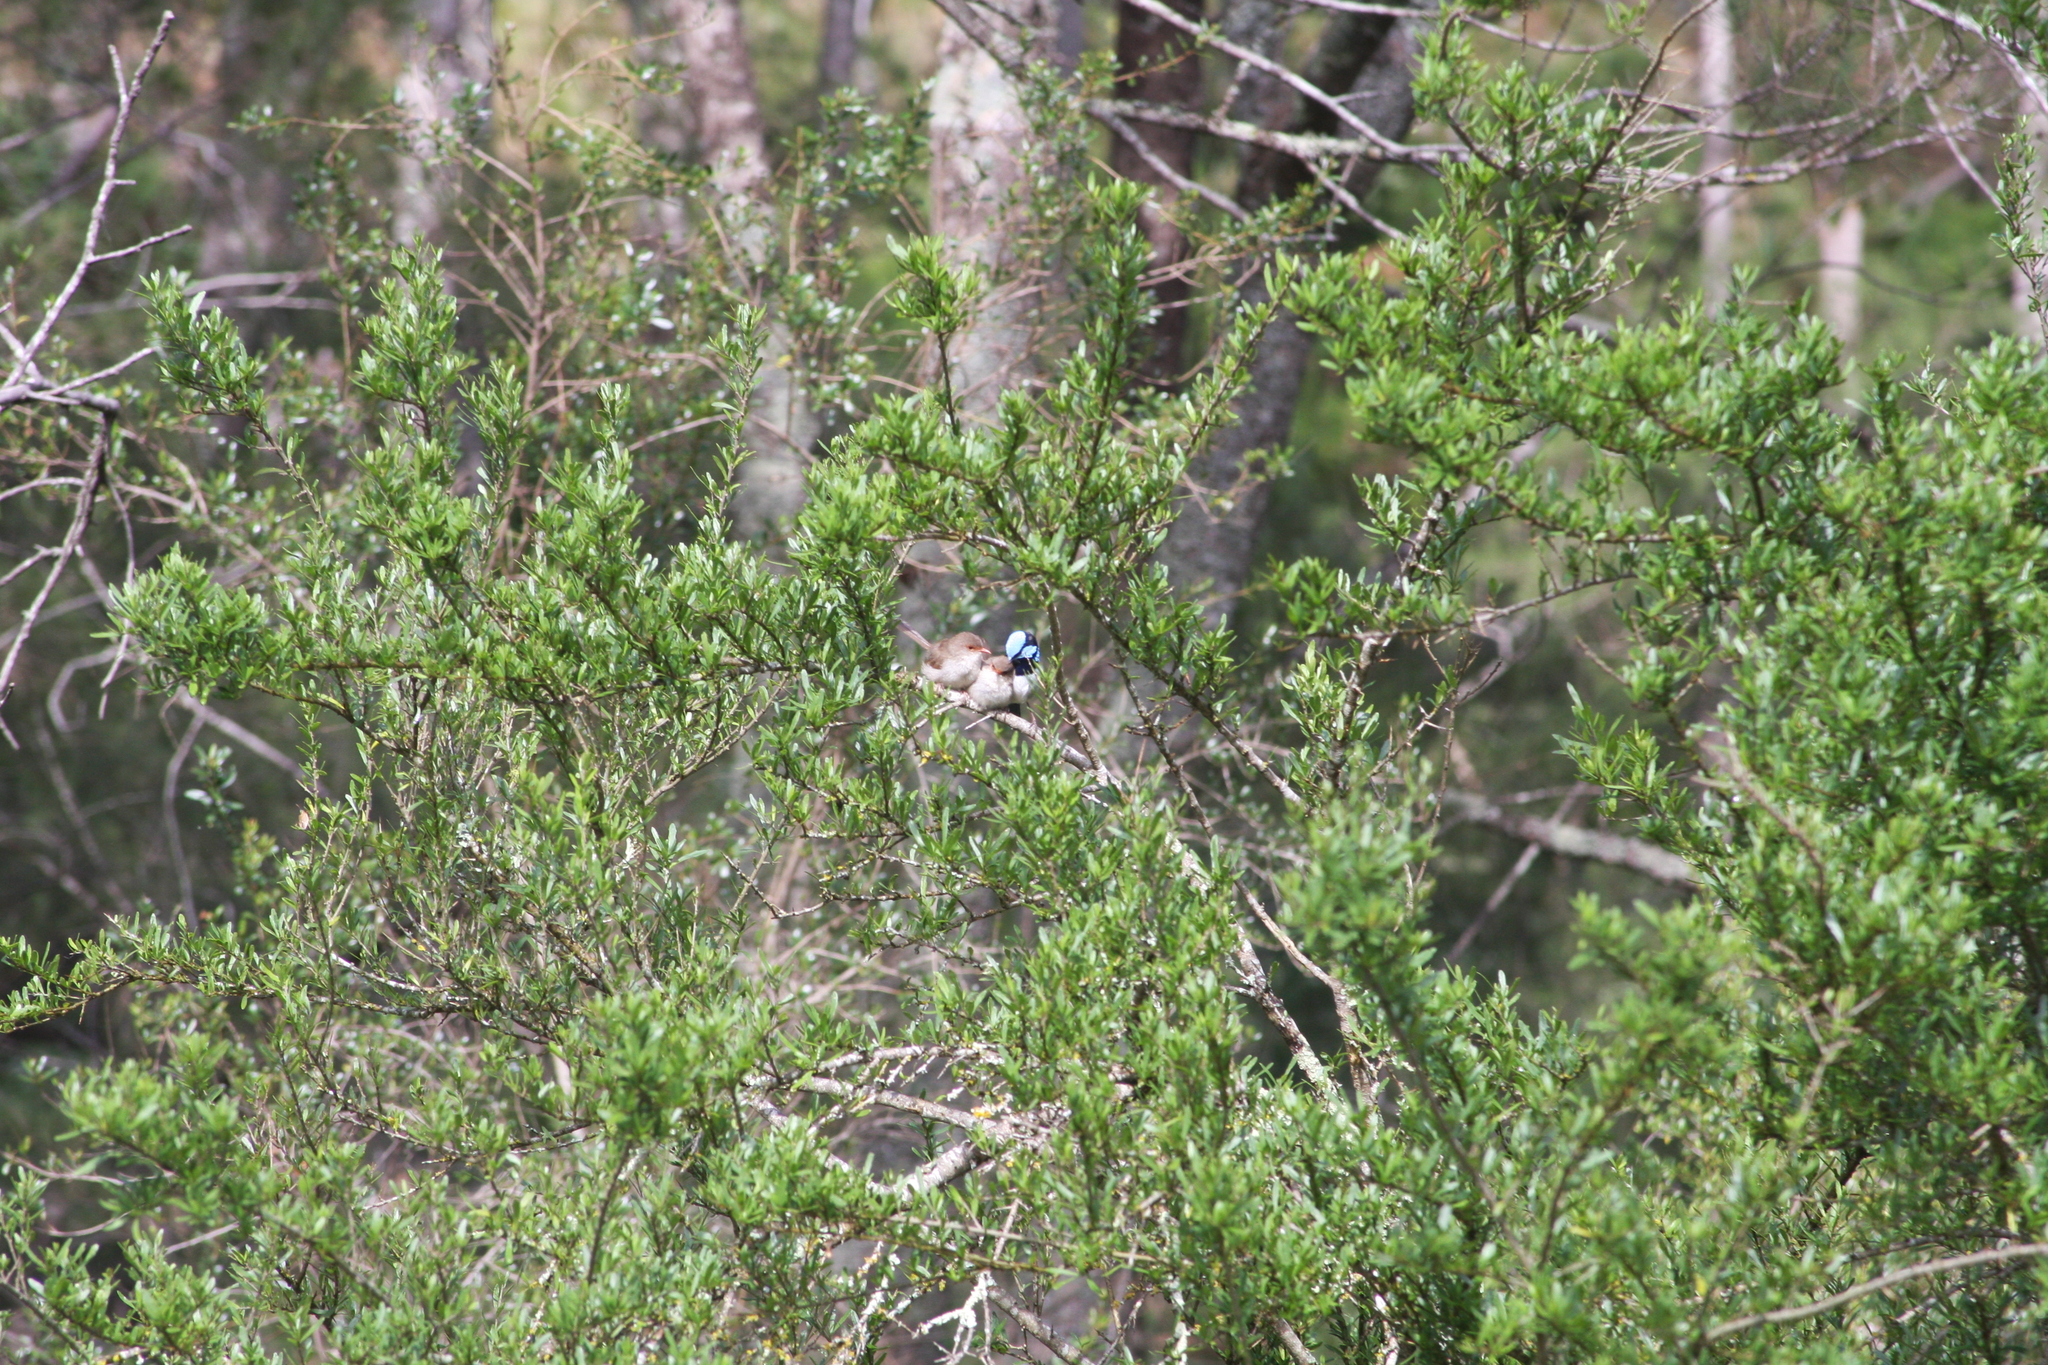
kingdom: Animalia
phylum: Chordata
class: Aves
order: Passeriformes
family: Maluridae
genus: Malurus
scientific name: Malurus cyaneus
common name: Superb fairywren
